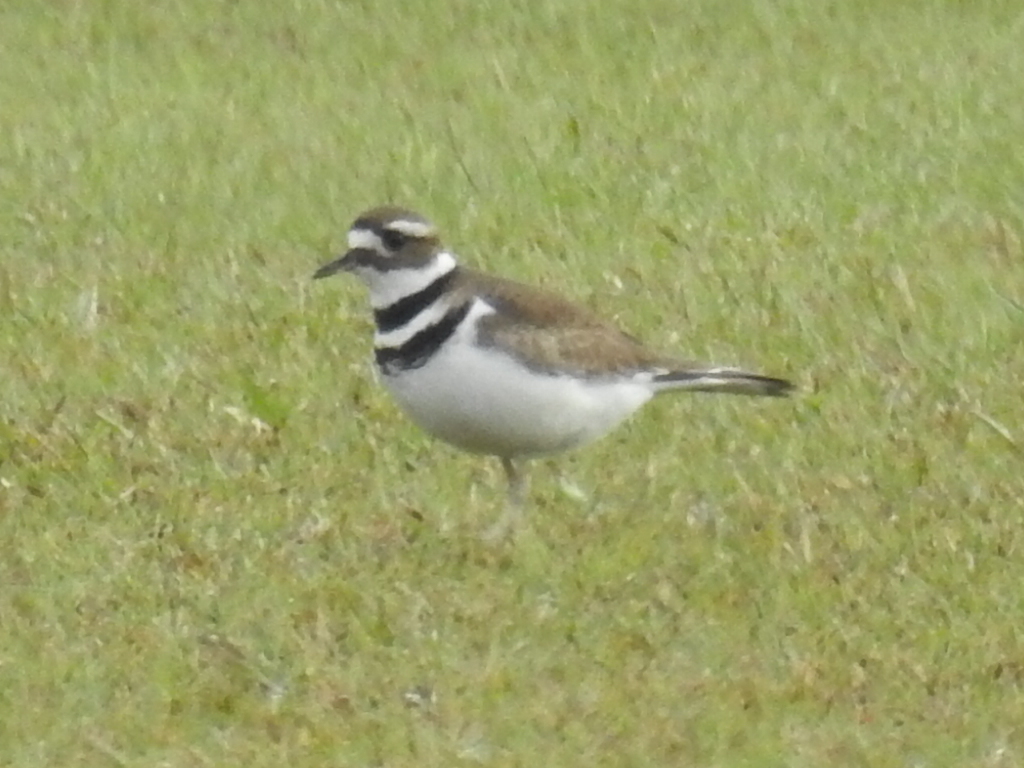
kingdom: Animalia
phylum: Chordata
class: Aves
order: Charadriiformes
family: Charadriidae
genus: Charadrius
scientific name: Charadrius vociferus
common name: Killdeer
